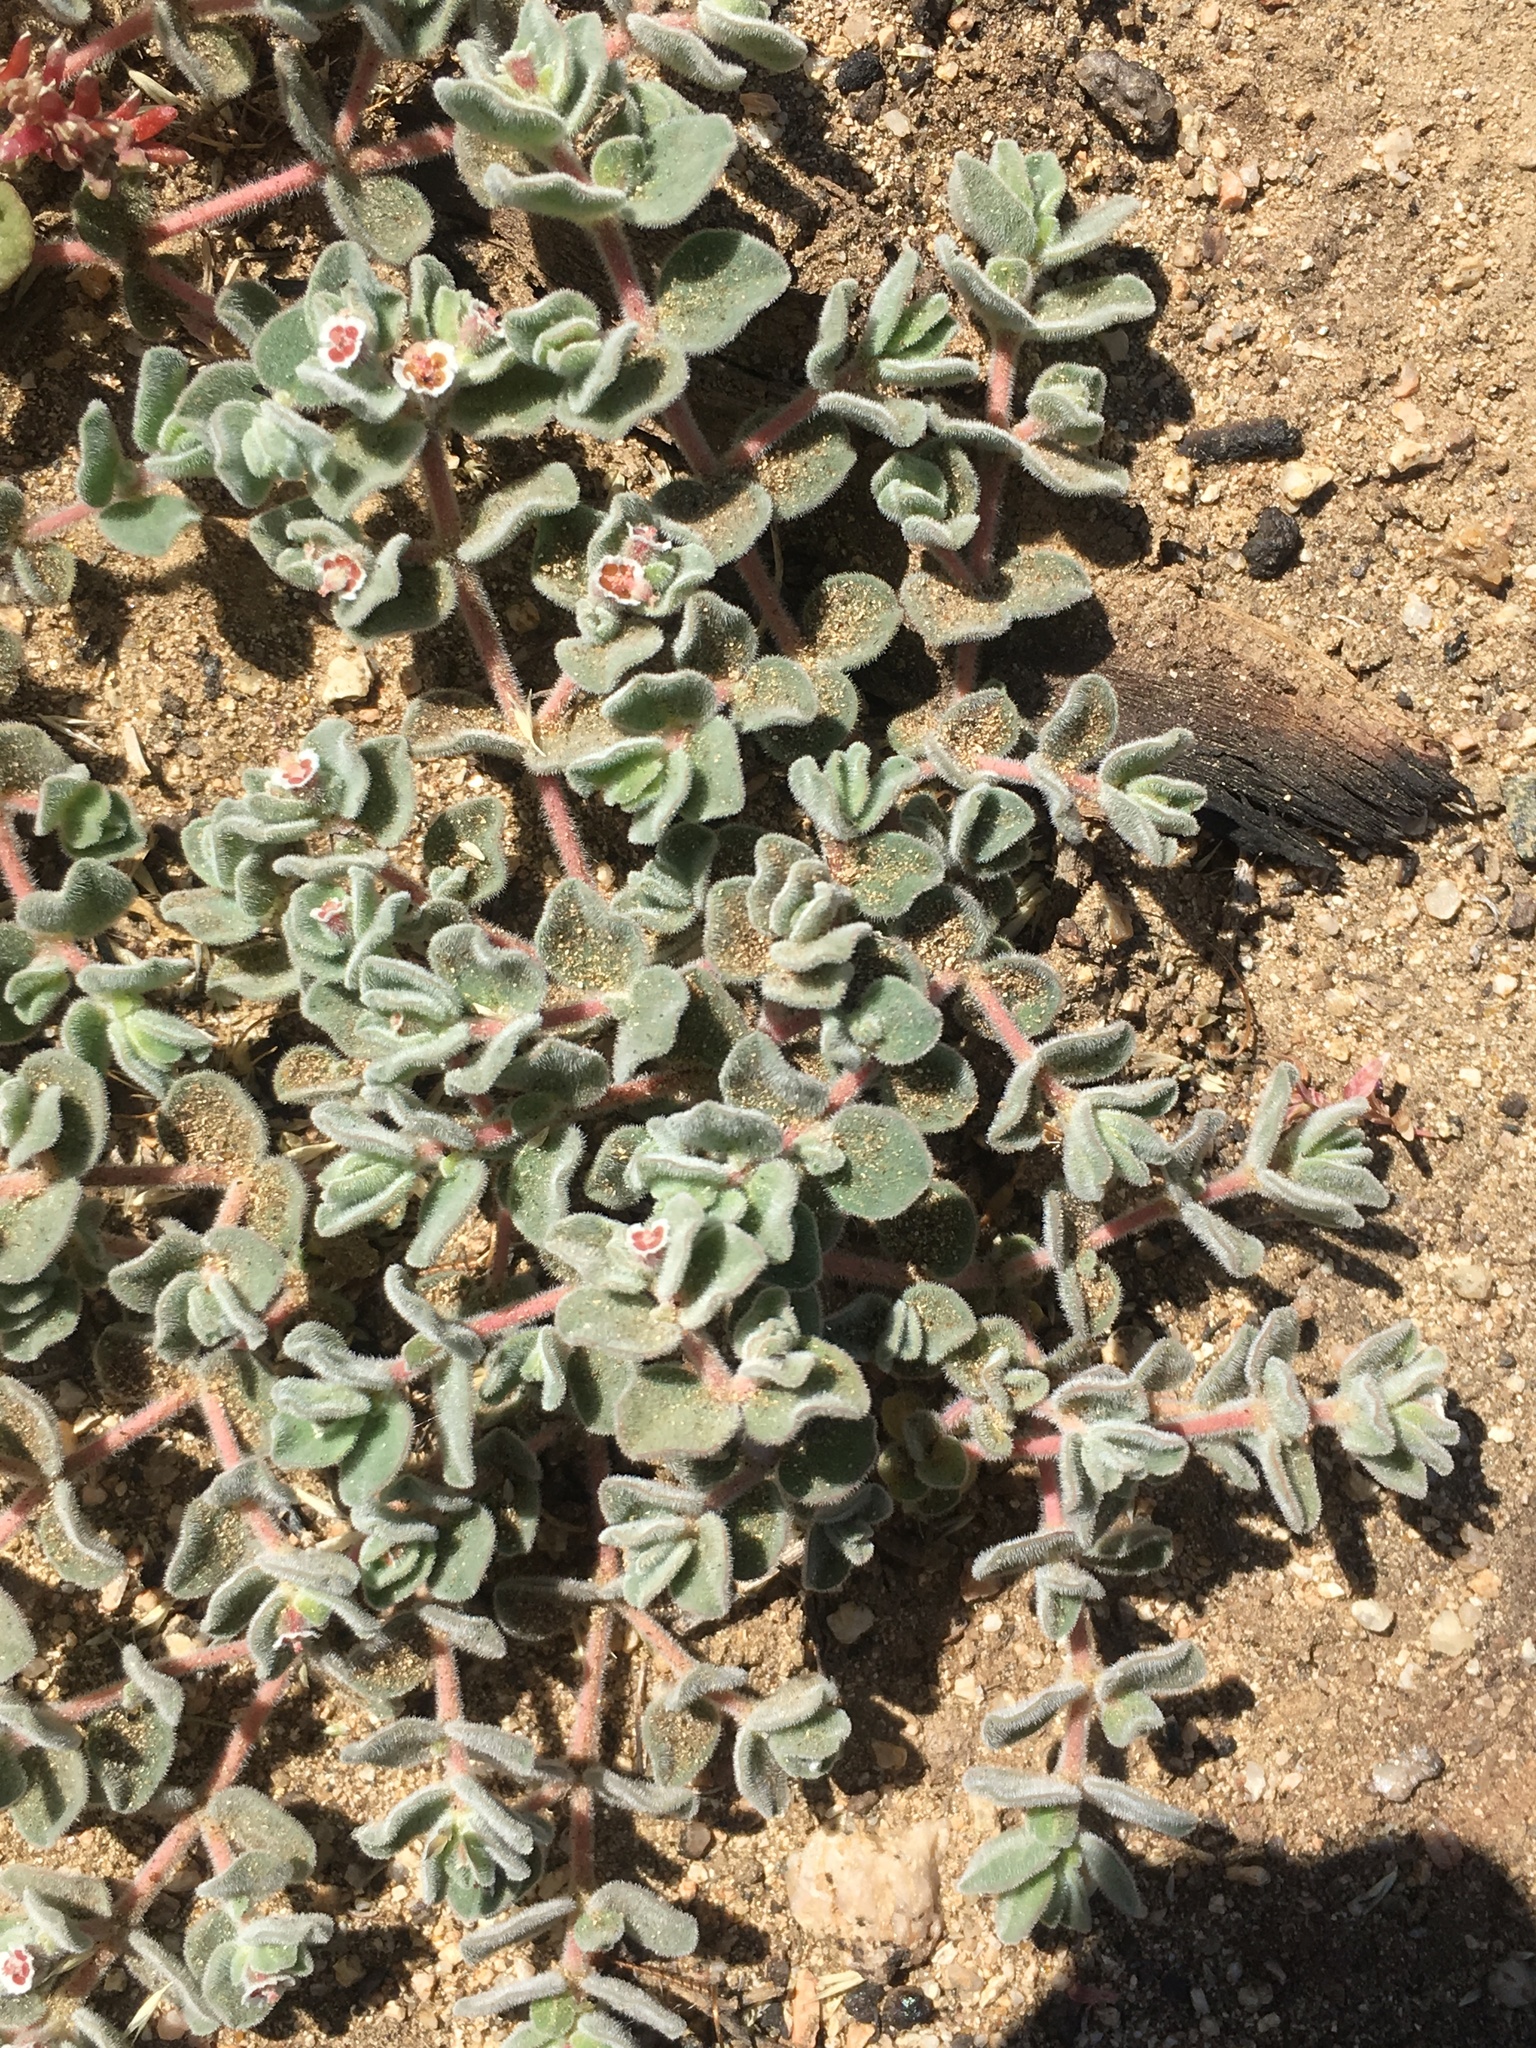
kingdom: Plantae
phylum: Tracheophyta
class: Magnoliopsida
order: Malpighiales
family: Euphorbiaceae
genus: Euphorbia
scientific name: Euphorbia vallis-mortae
